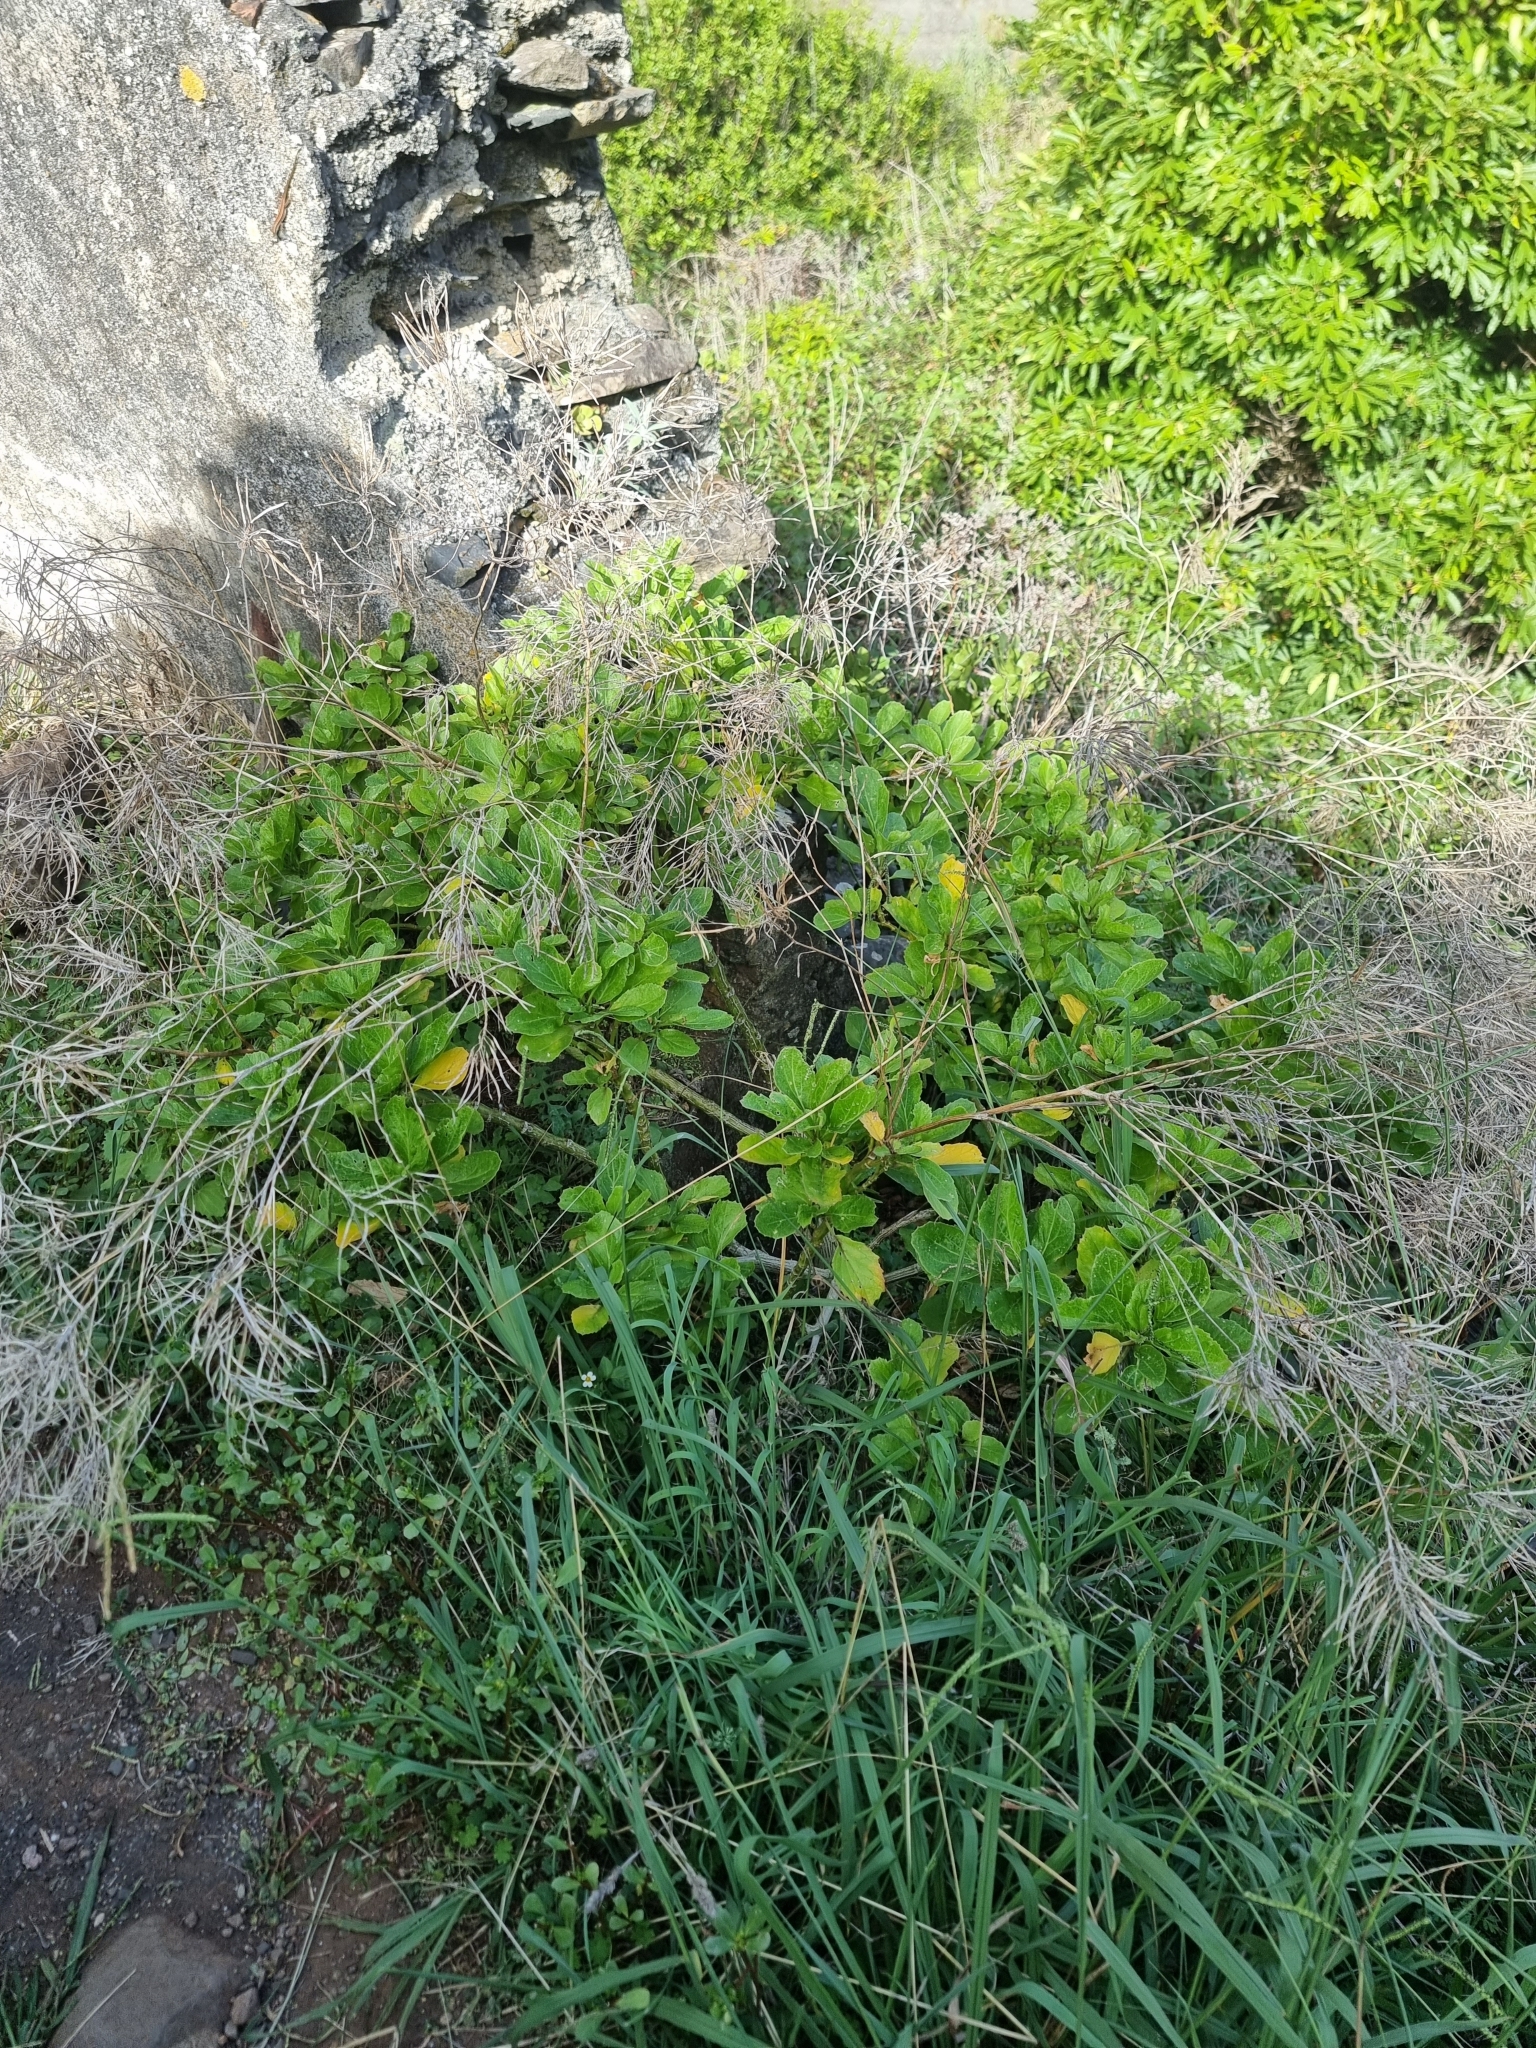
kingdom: Plantae
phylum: Tracheophyta
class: Magnoliopsida
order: Brassicales
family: Brassicaceae
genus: Sinapidendron
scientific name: Sinapidendron rupestre
